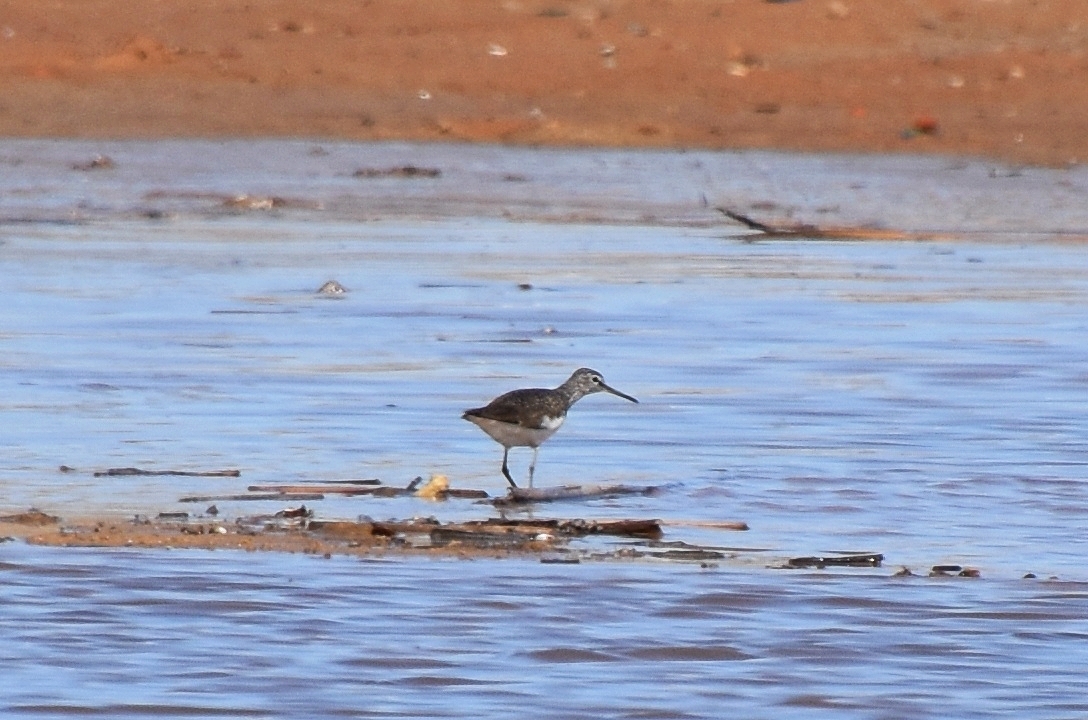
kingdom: Animalia
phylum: Chordata
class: Aves
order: Charadriiformes
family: Scolopacidae
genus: Tringa
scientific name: Tringa ochropus
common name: Green sandpiper
